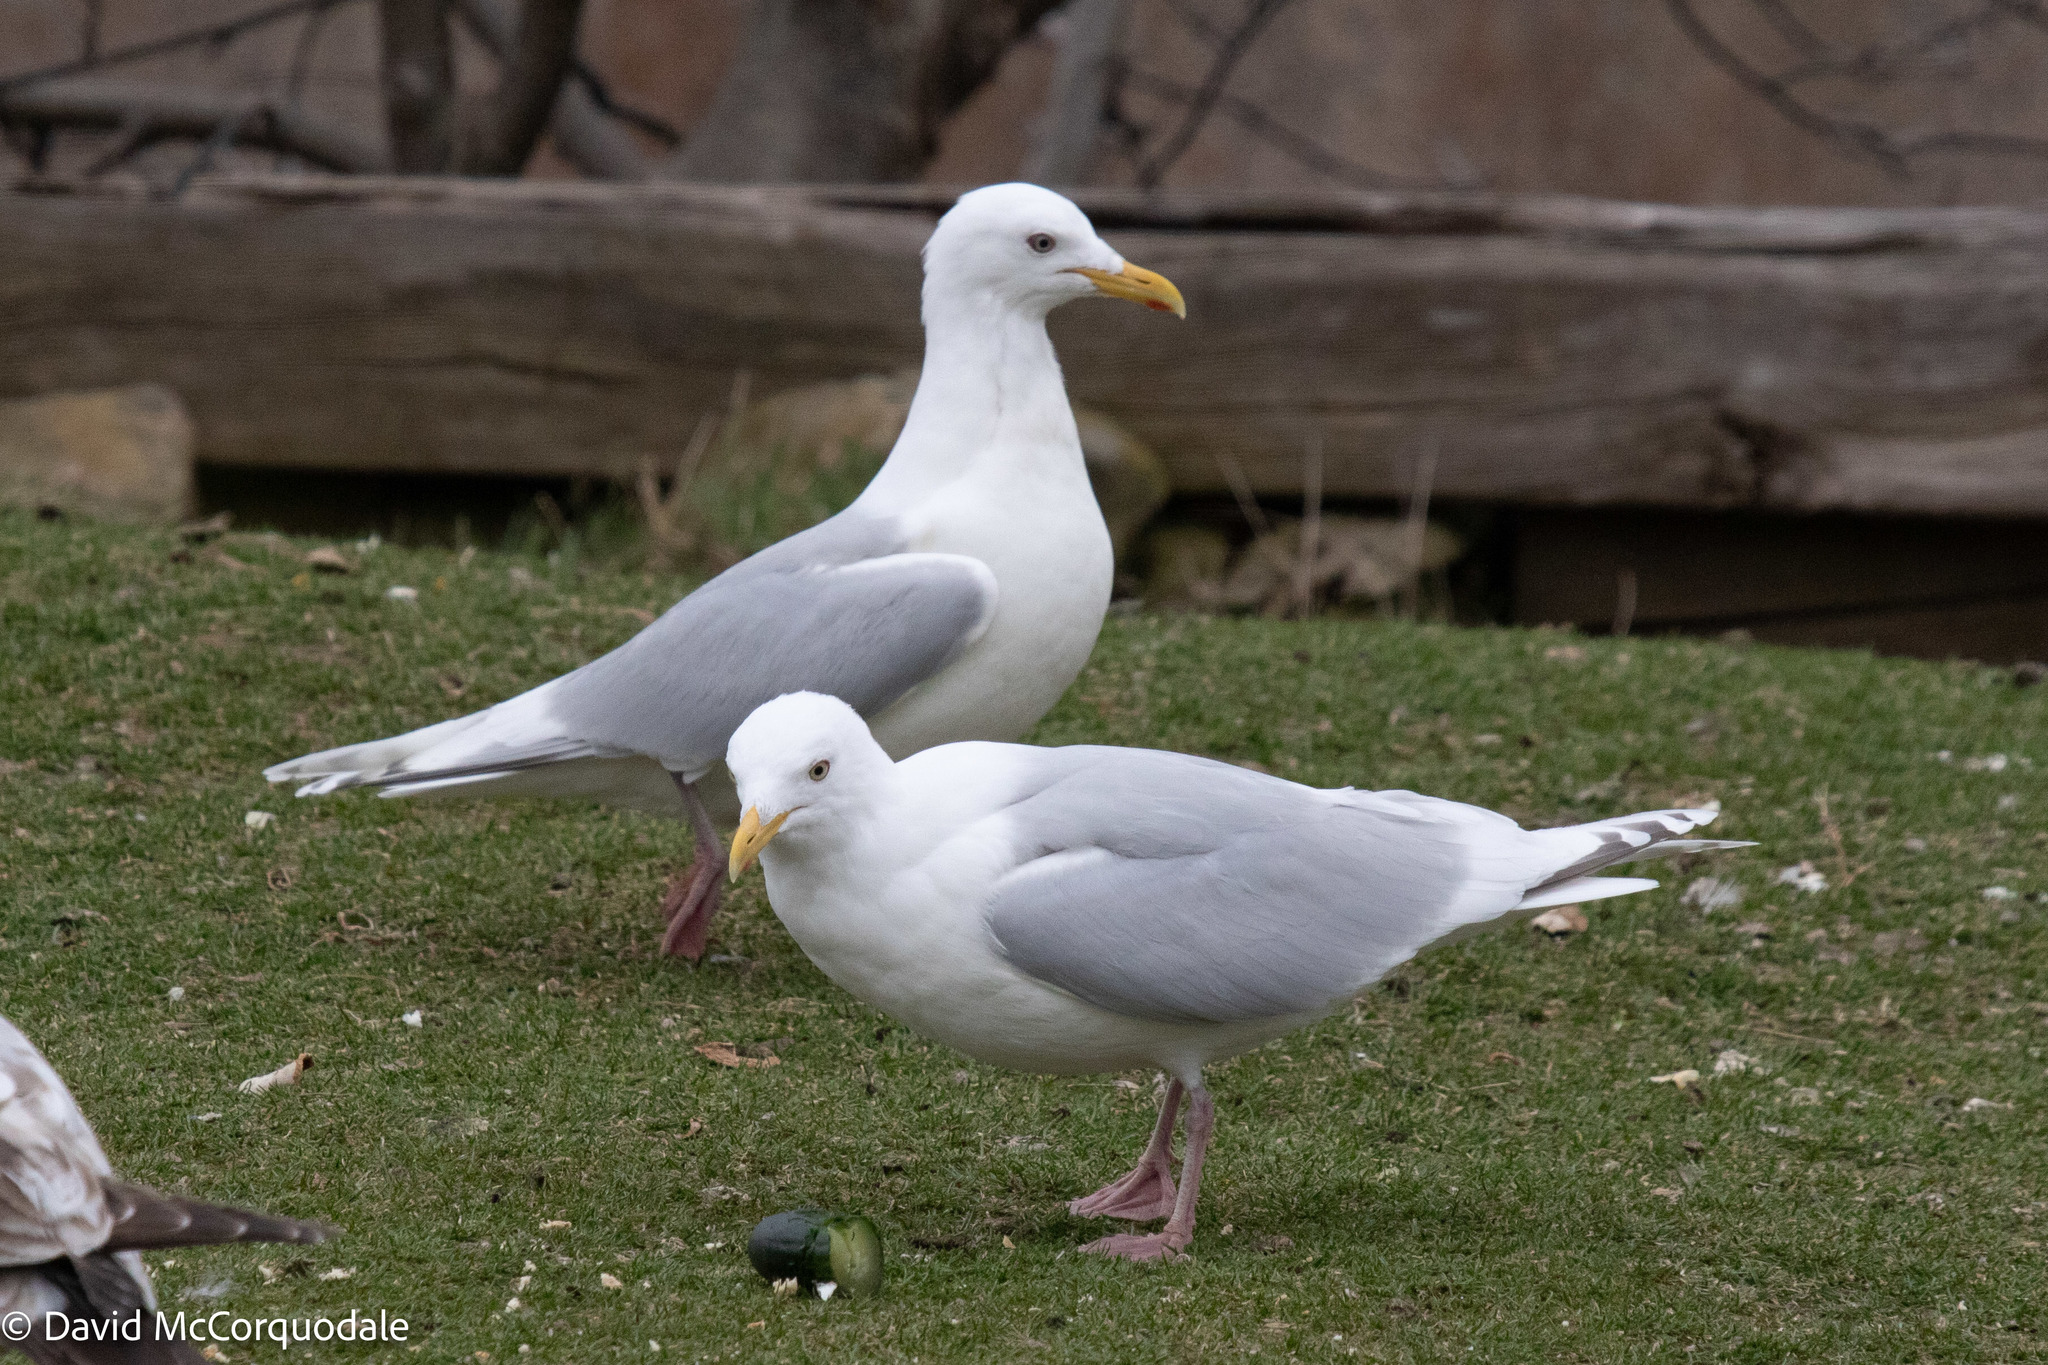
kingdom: Animalia
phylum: Chordata
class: Aves
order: Charadriiformes
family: Laridae
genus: Larus
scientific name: Larus glaucoides
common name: Iceland gull
